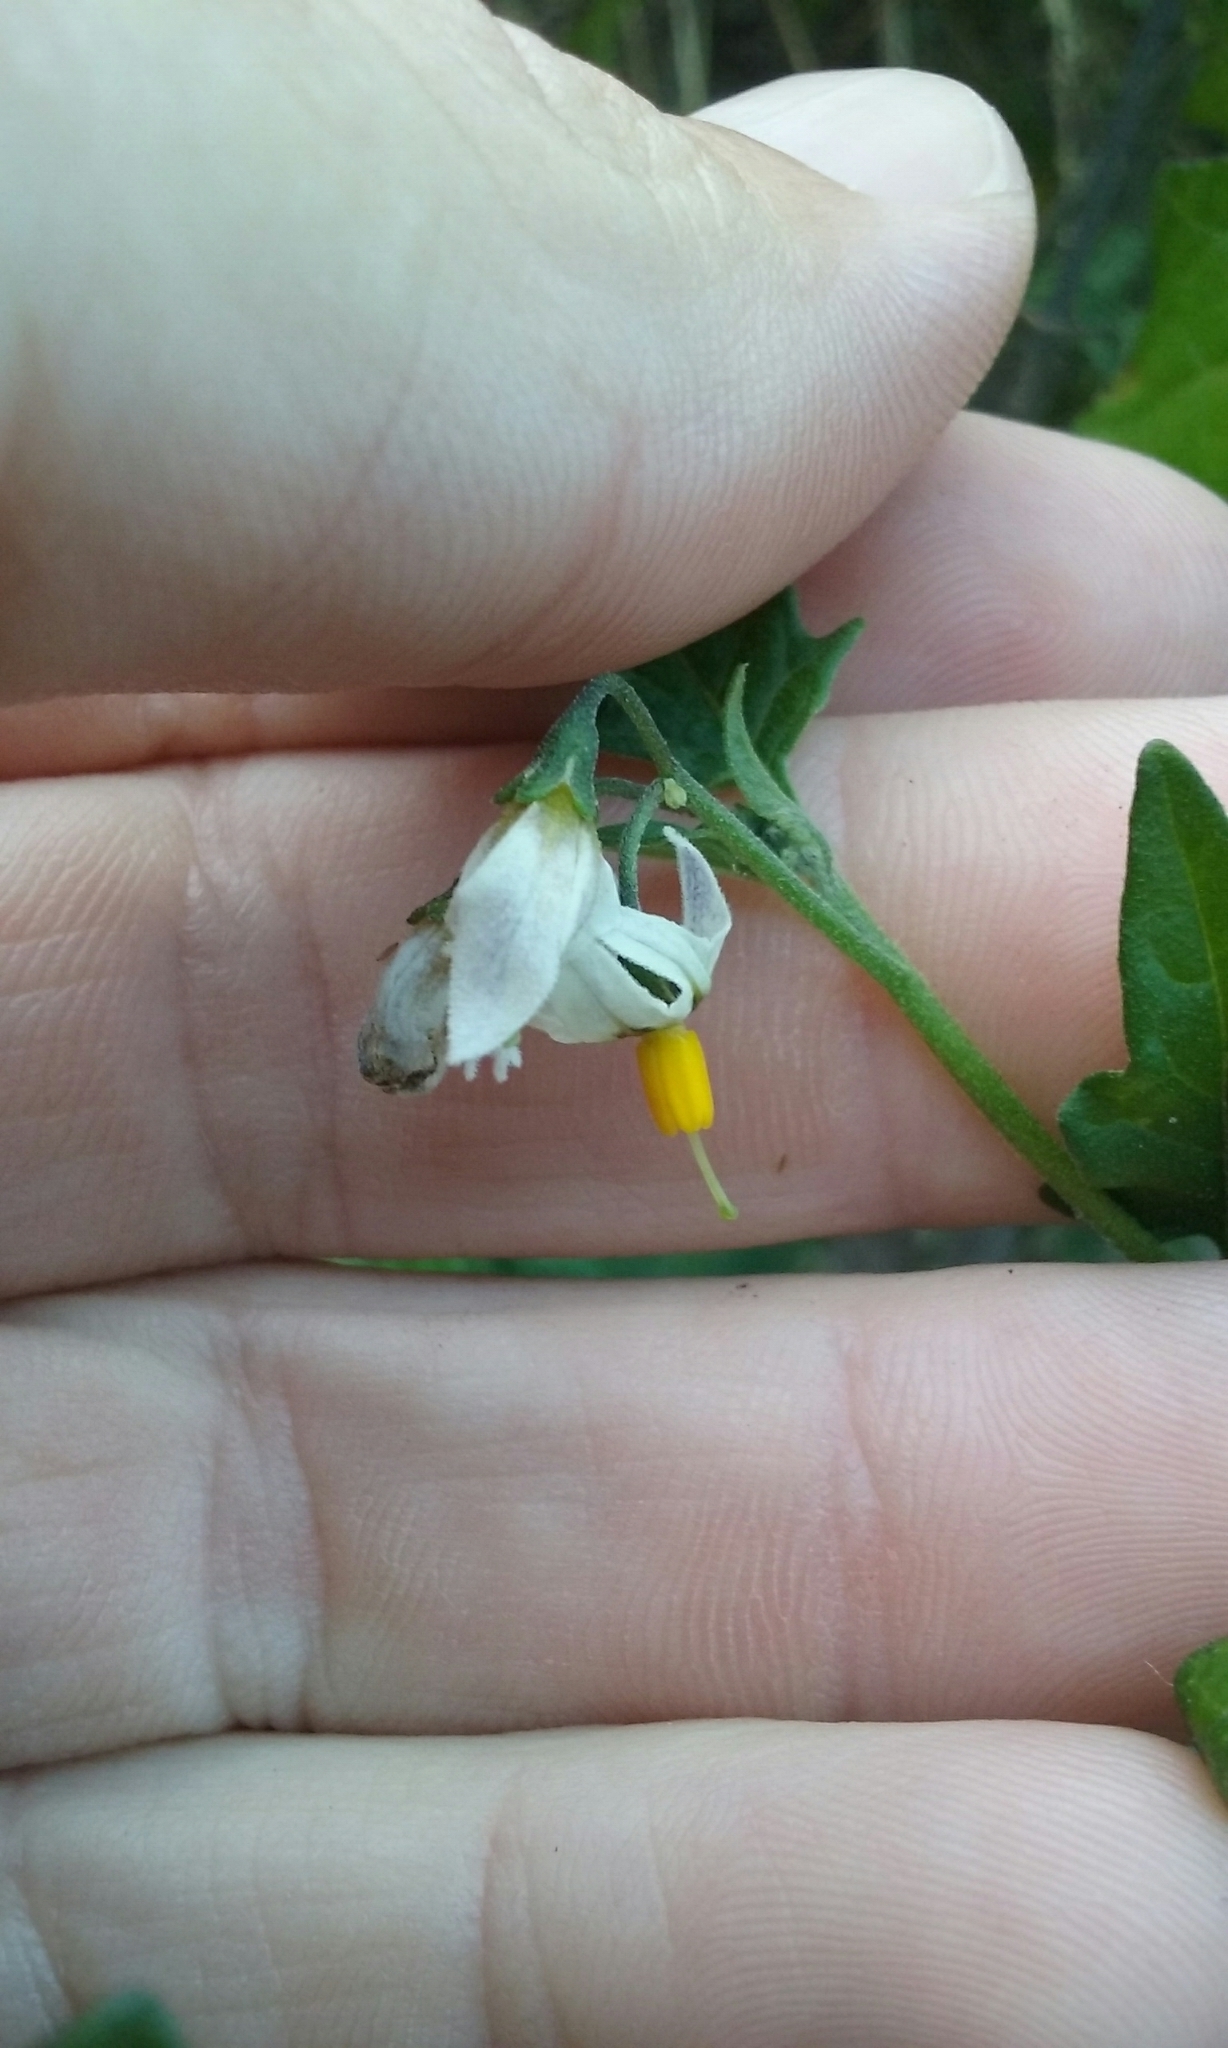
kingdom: Plantae
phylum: Tracheophyta
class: Magnoliopsida
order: Solanales
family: Solanaceae
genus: Solanum
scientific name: Solanum douglasii
